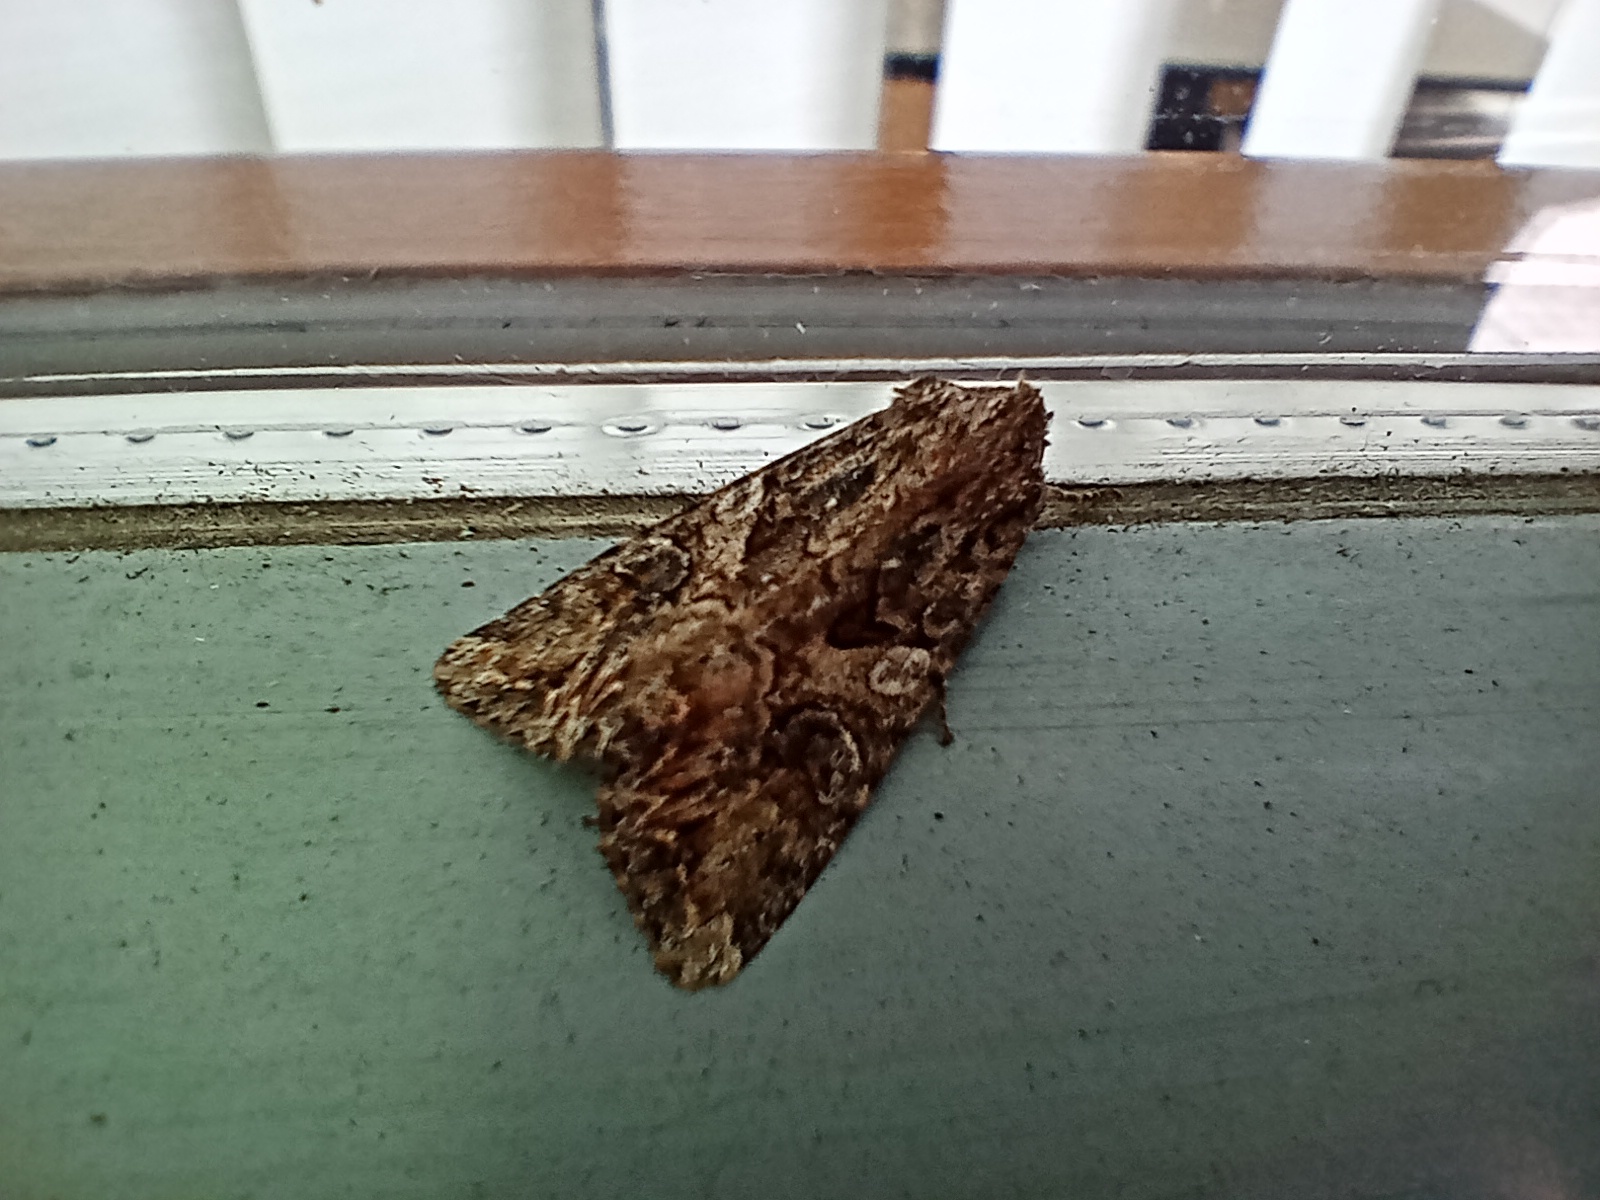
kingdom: Animalia
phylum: Arthropoda
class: Insecta
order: Lepidoptera
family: Noctuidae
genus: Anarta
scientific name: Anarta trifolii
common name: Clover cutworm moth
